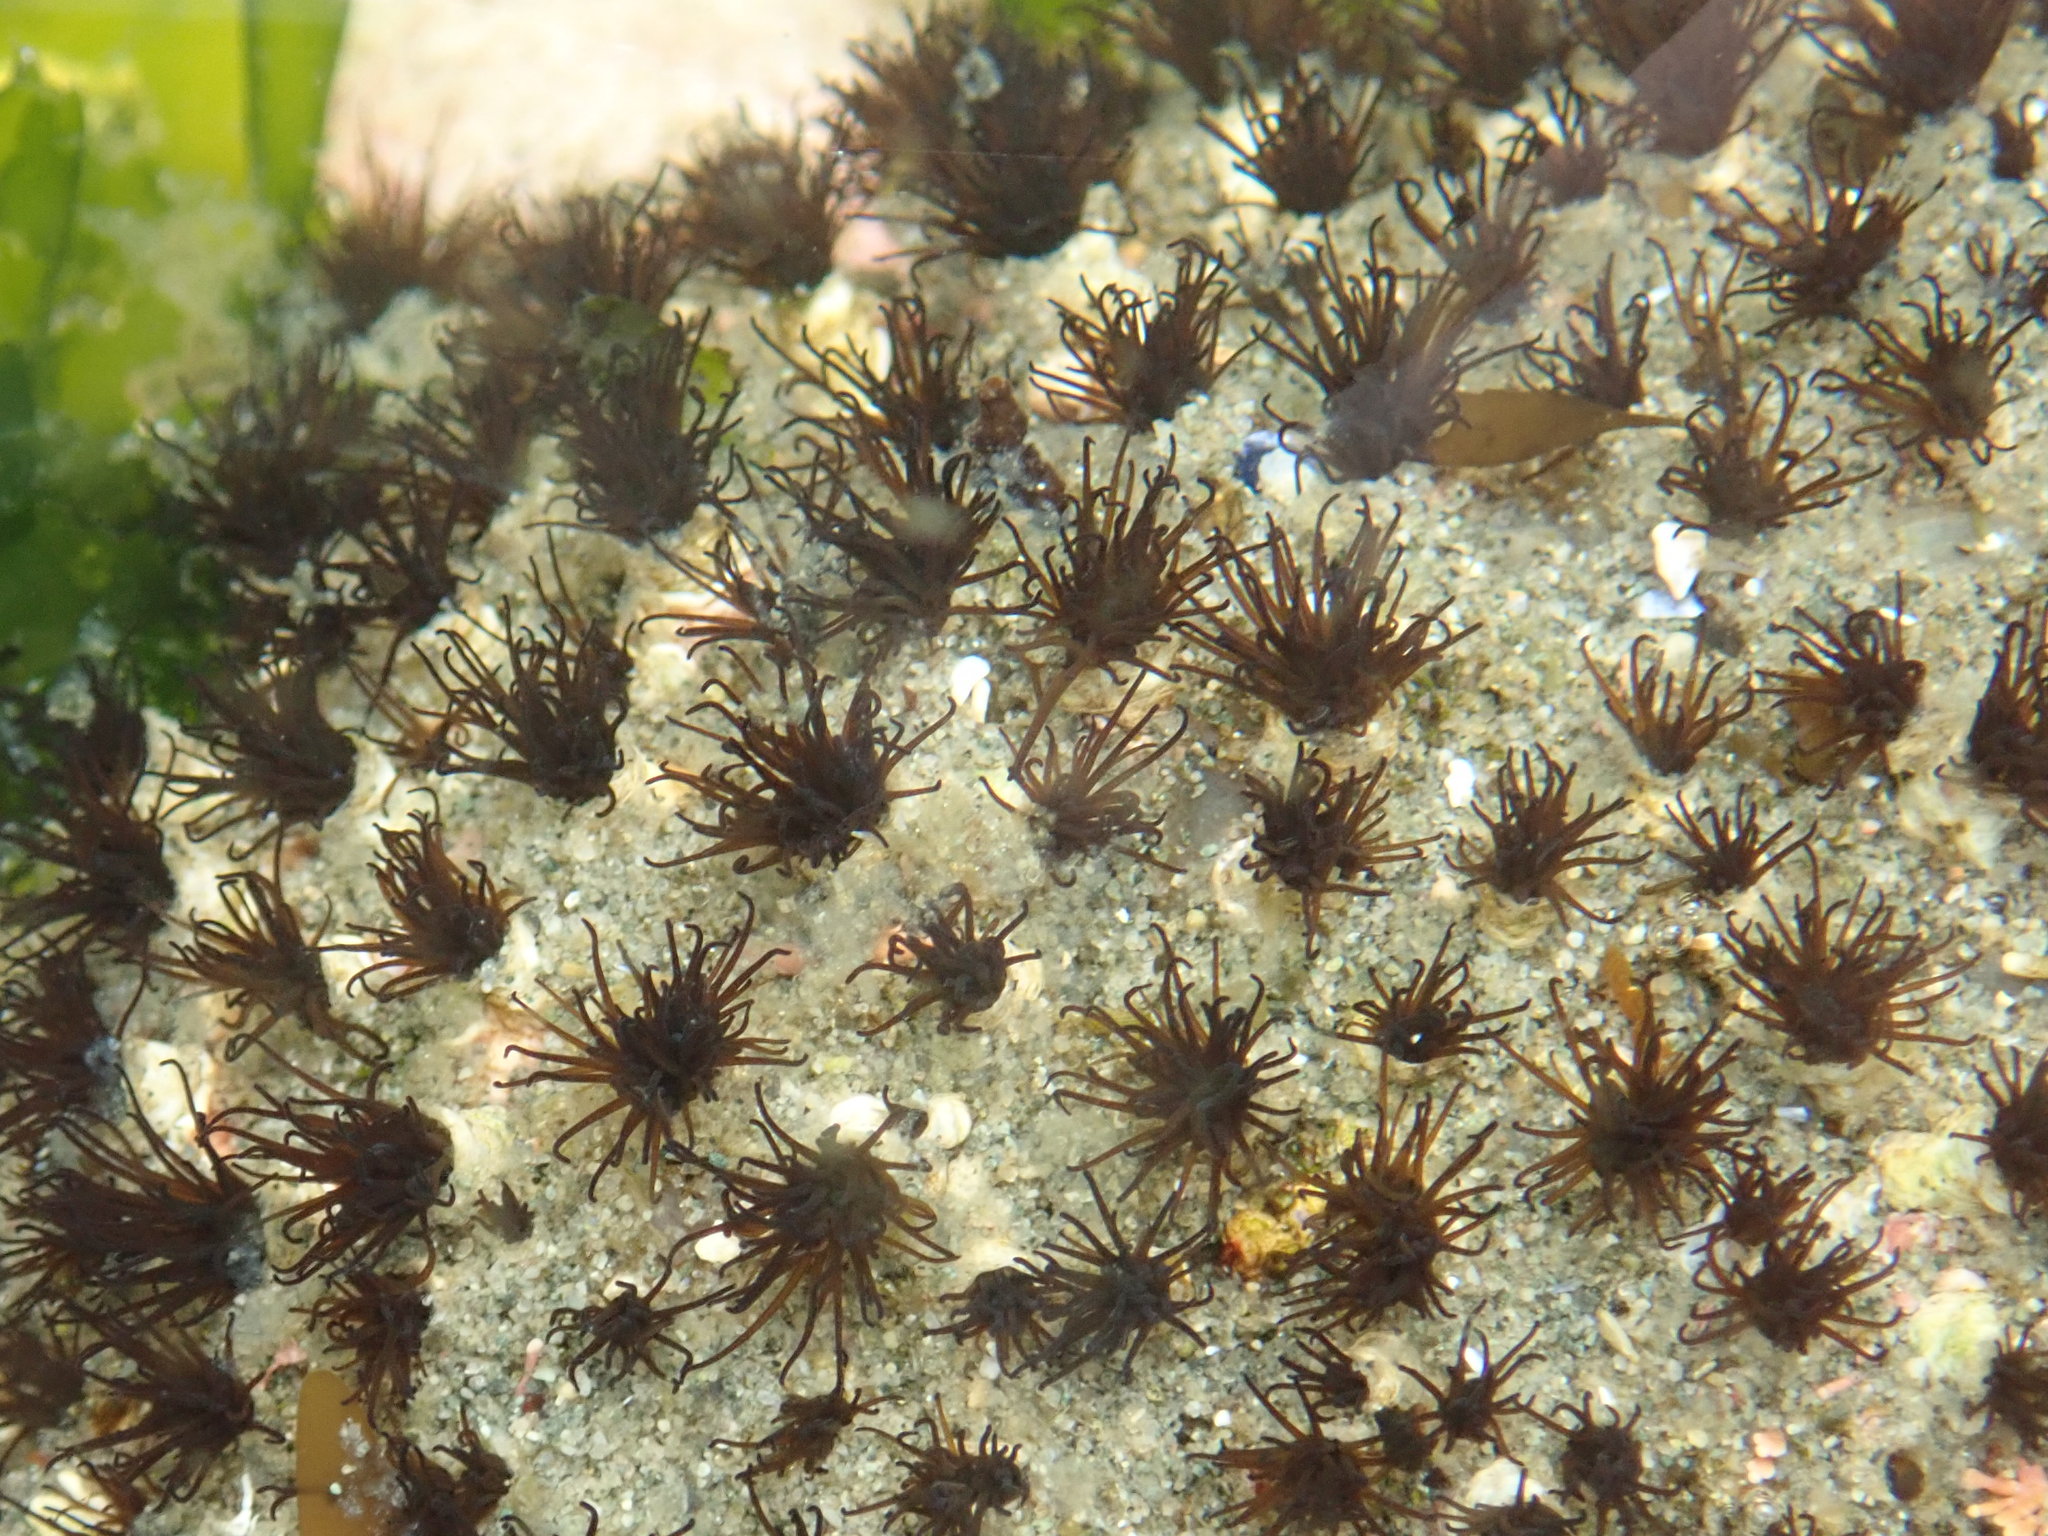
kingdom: Animalia
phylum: Annelida
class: Polychaeta
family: Cirratulidae
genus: Dodecaceria
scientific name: Dodecaceria pacifica
